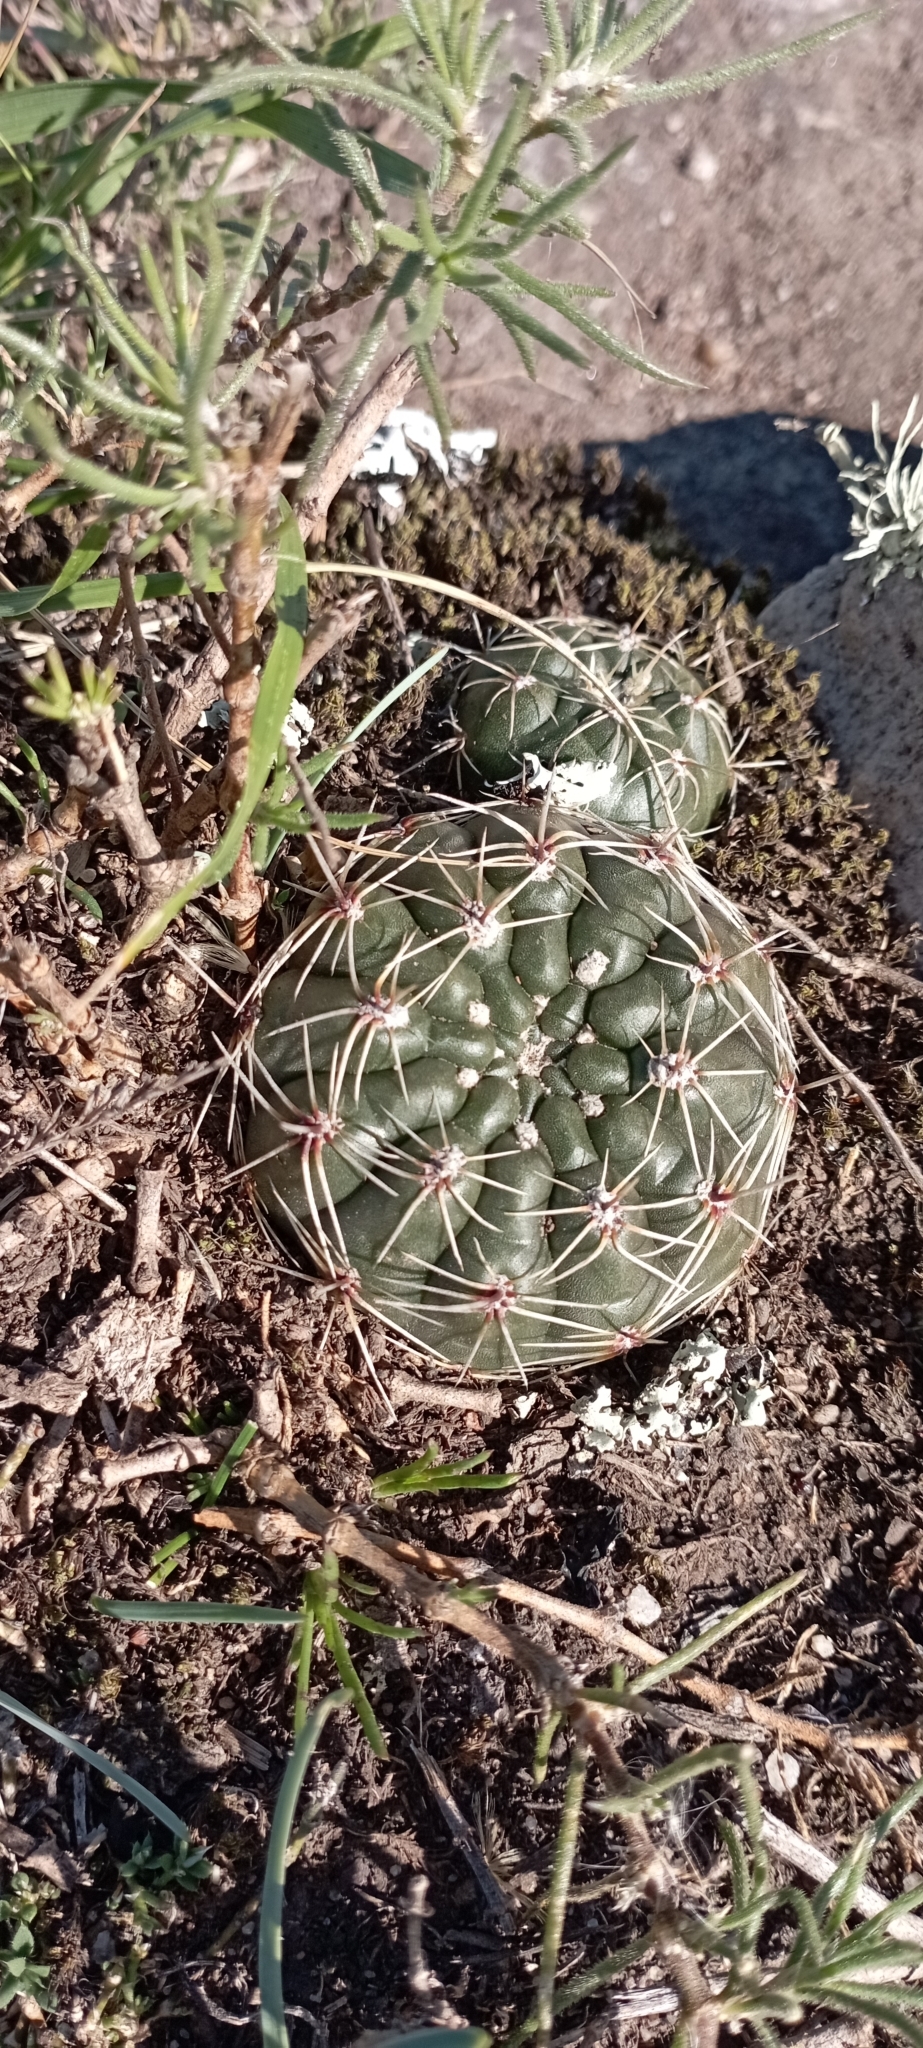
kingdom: Plantae
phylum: Tracheophyta
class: Magnoliopsida
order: Caryophyllales
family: Cactaceae
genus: Gymnocalycium
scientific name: Gymnocalycium reductum
